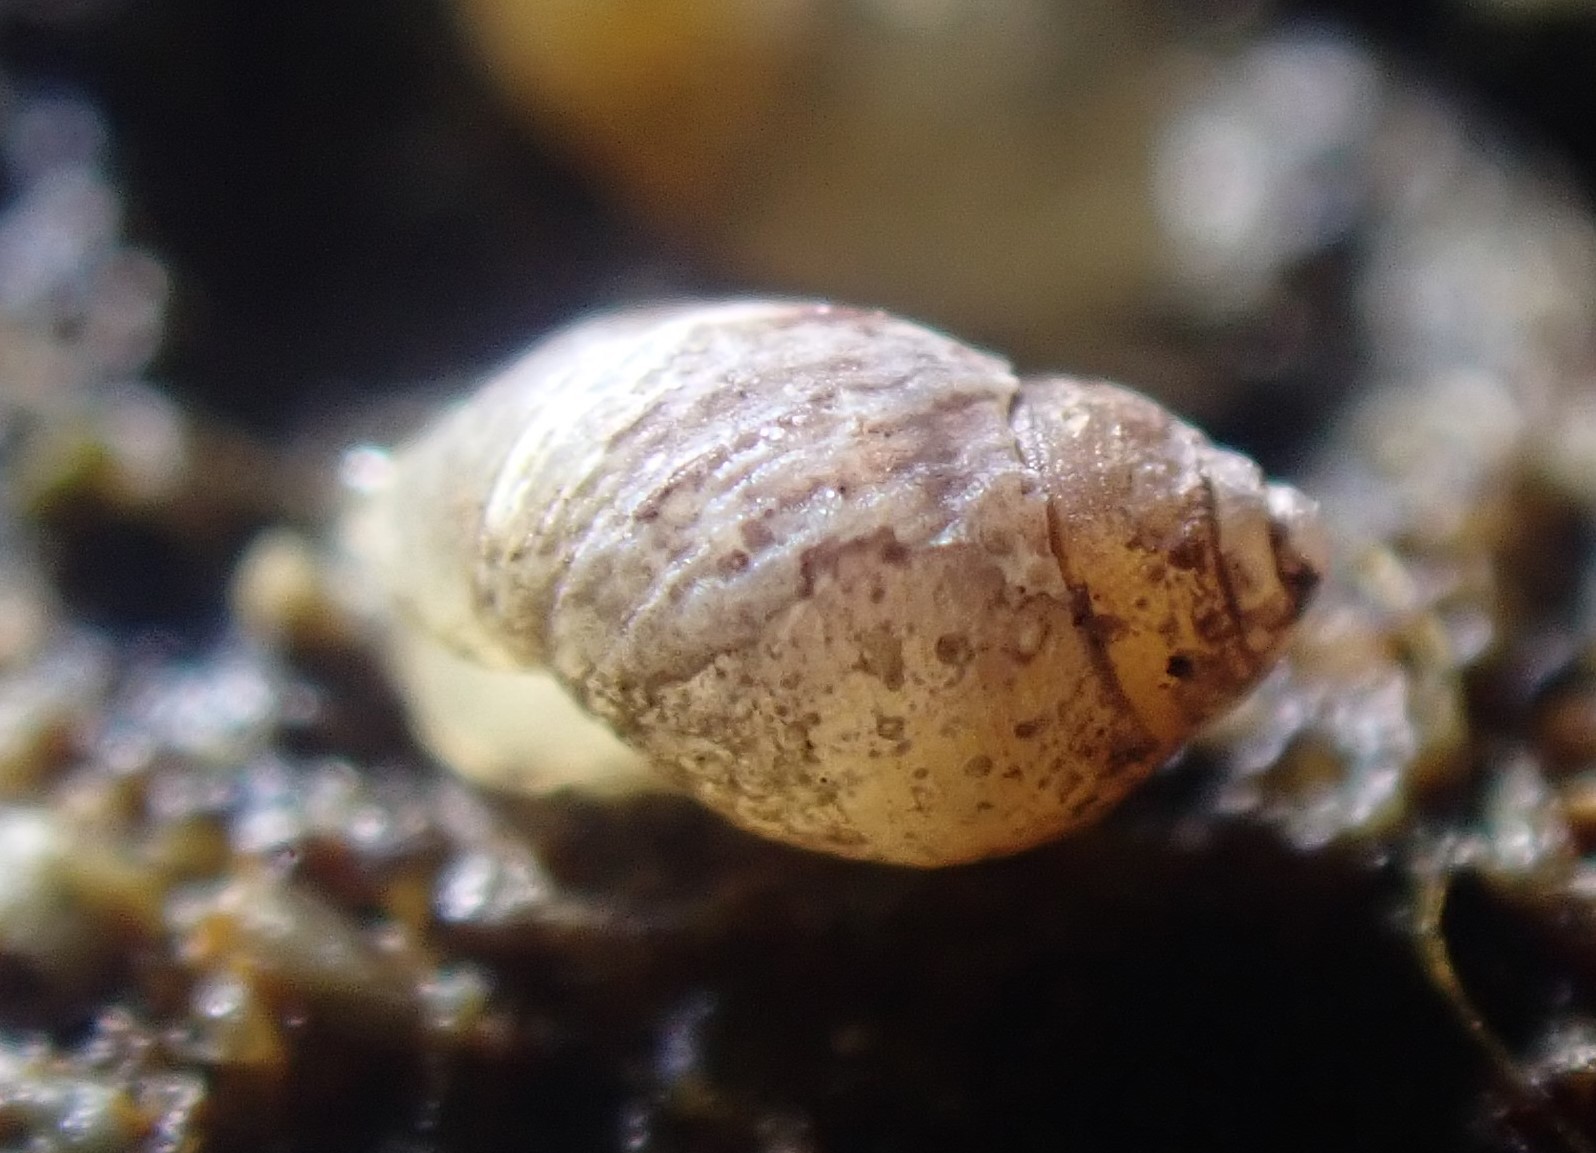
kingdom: Animalia
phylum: Mollusca
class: Gastropoda
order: Ellobiida
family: Ellobiidae
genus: Leuconopsis
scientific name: Leuconopsis obsoleta
